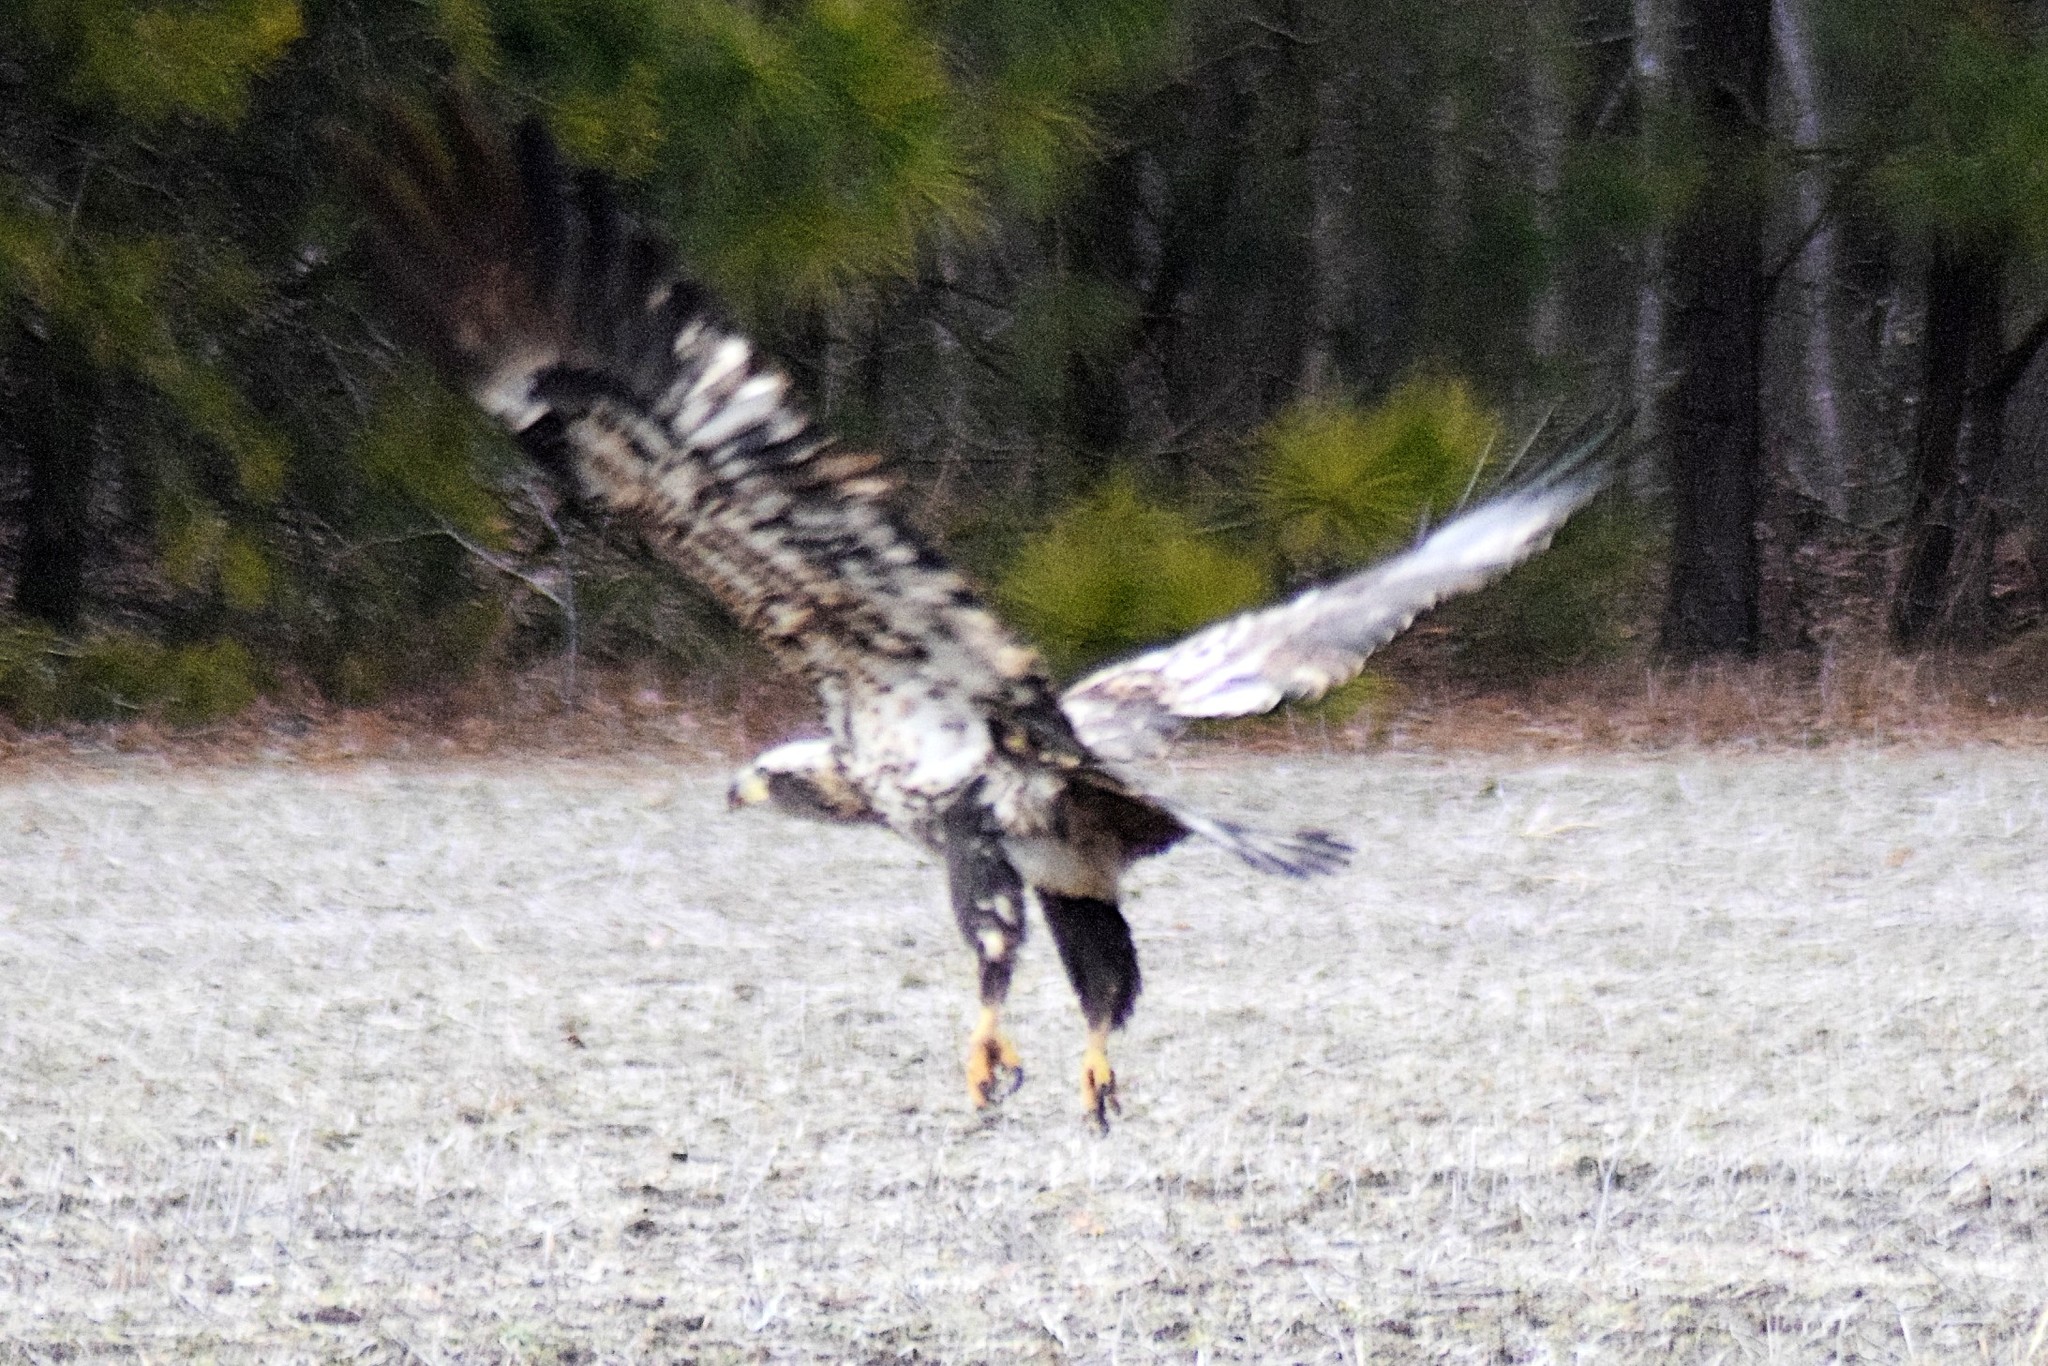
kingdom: Animalia
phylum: Chordata
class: Aves
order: Accipitriformes
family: Accipitridae
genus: Haliaeetus
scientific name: Haliaeetus leucocephalus
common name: Bald eagle
